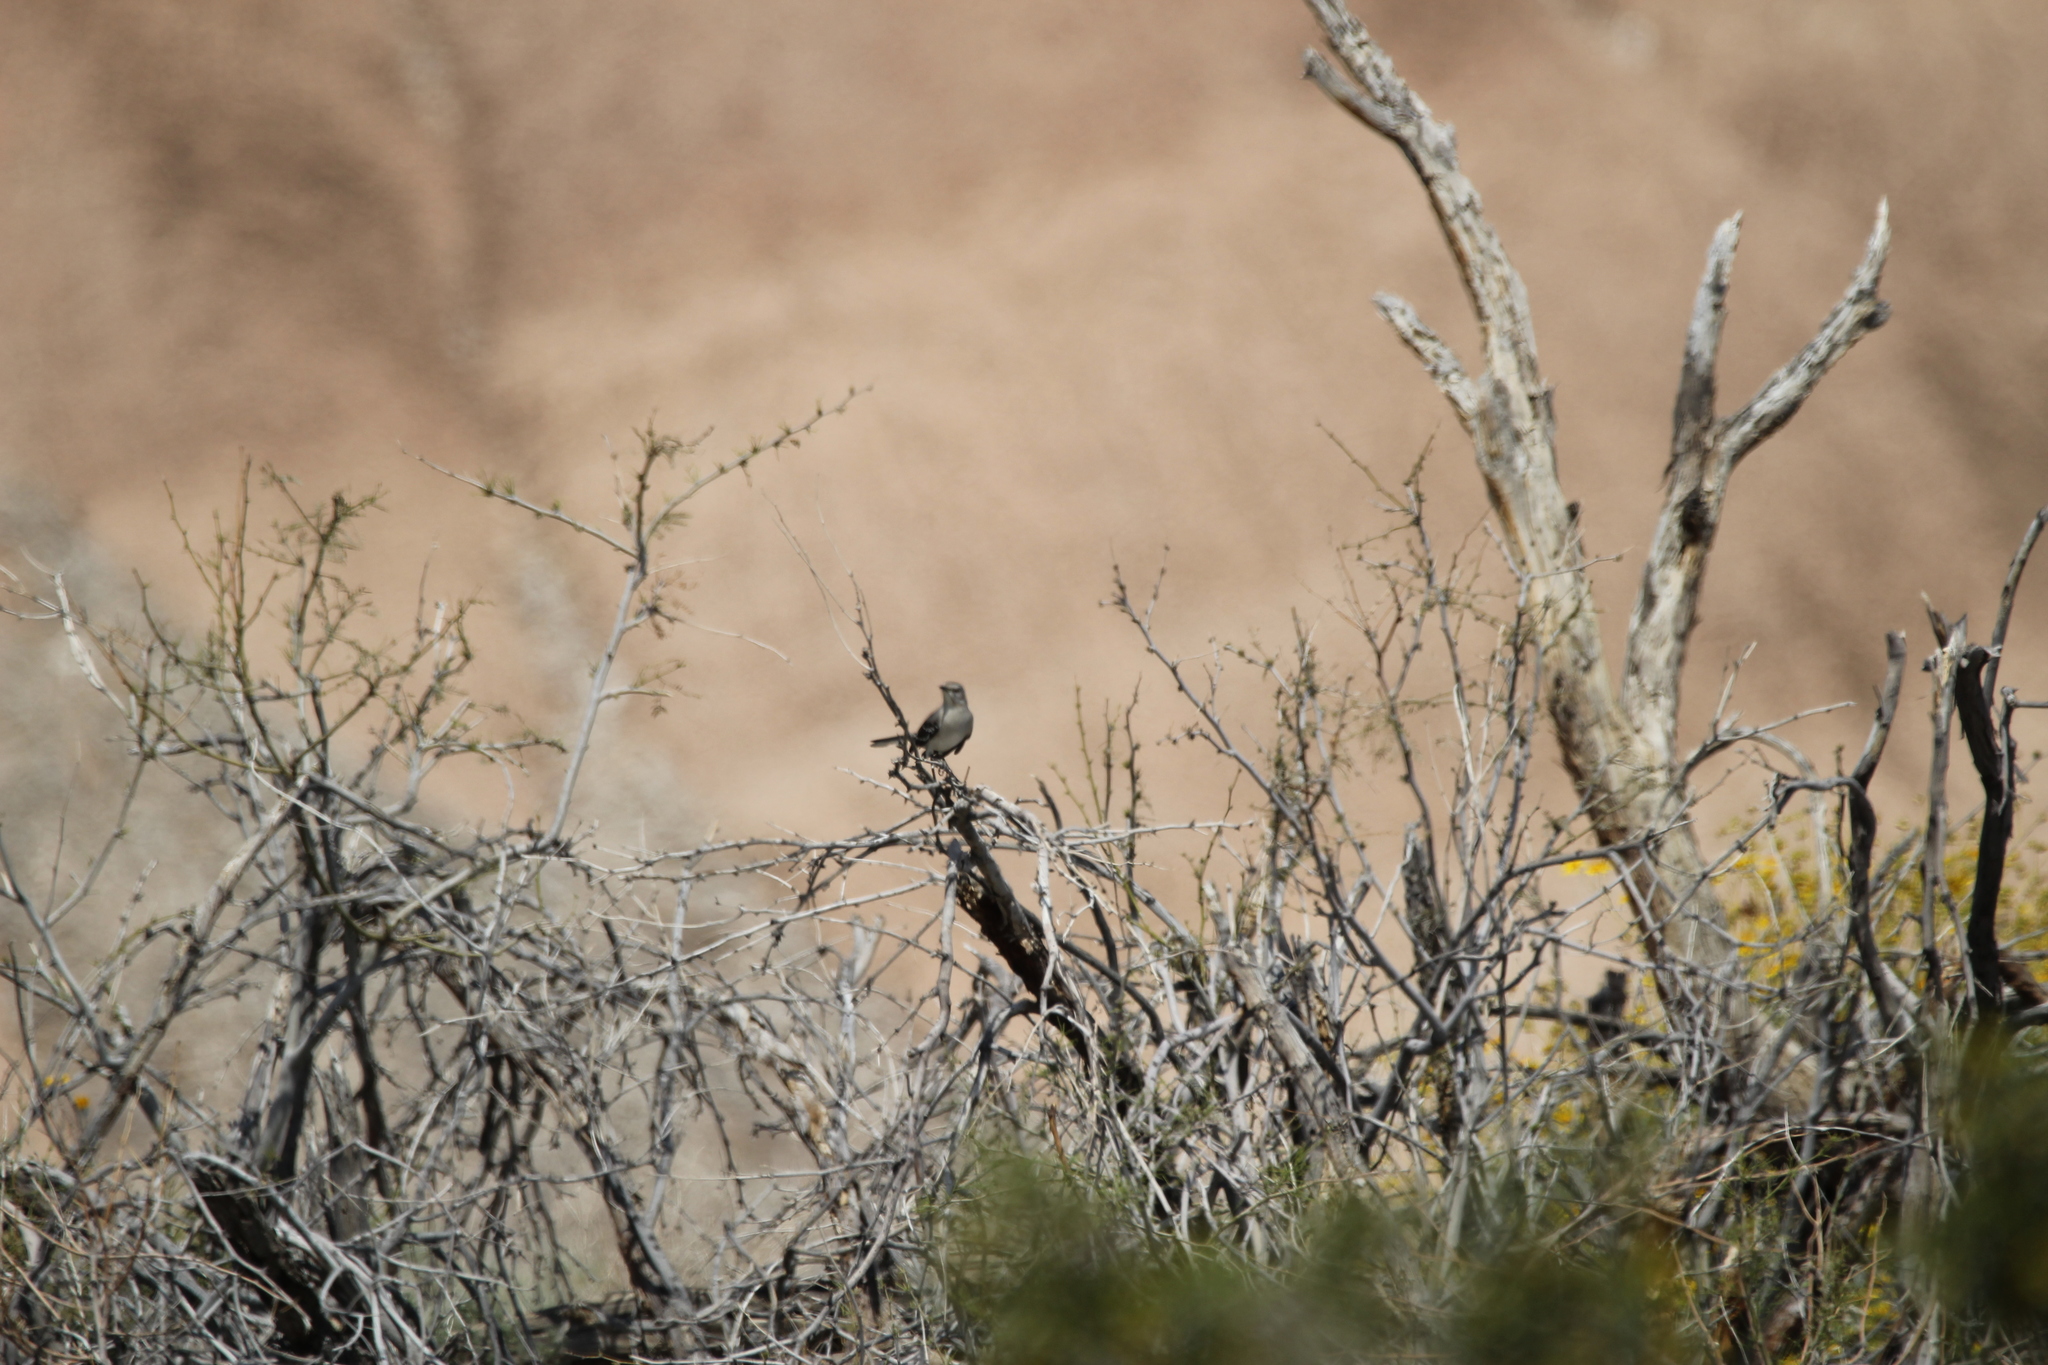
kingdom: Animalia
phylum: Chordata
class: Aves
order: Passeriformes
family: Mimidae
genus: Mimus
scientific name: Mimus polyglottos
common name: Northern mockingbird
